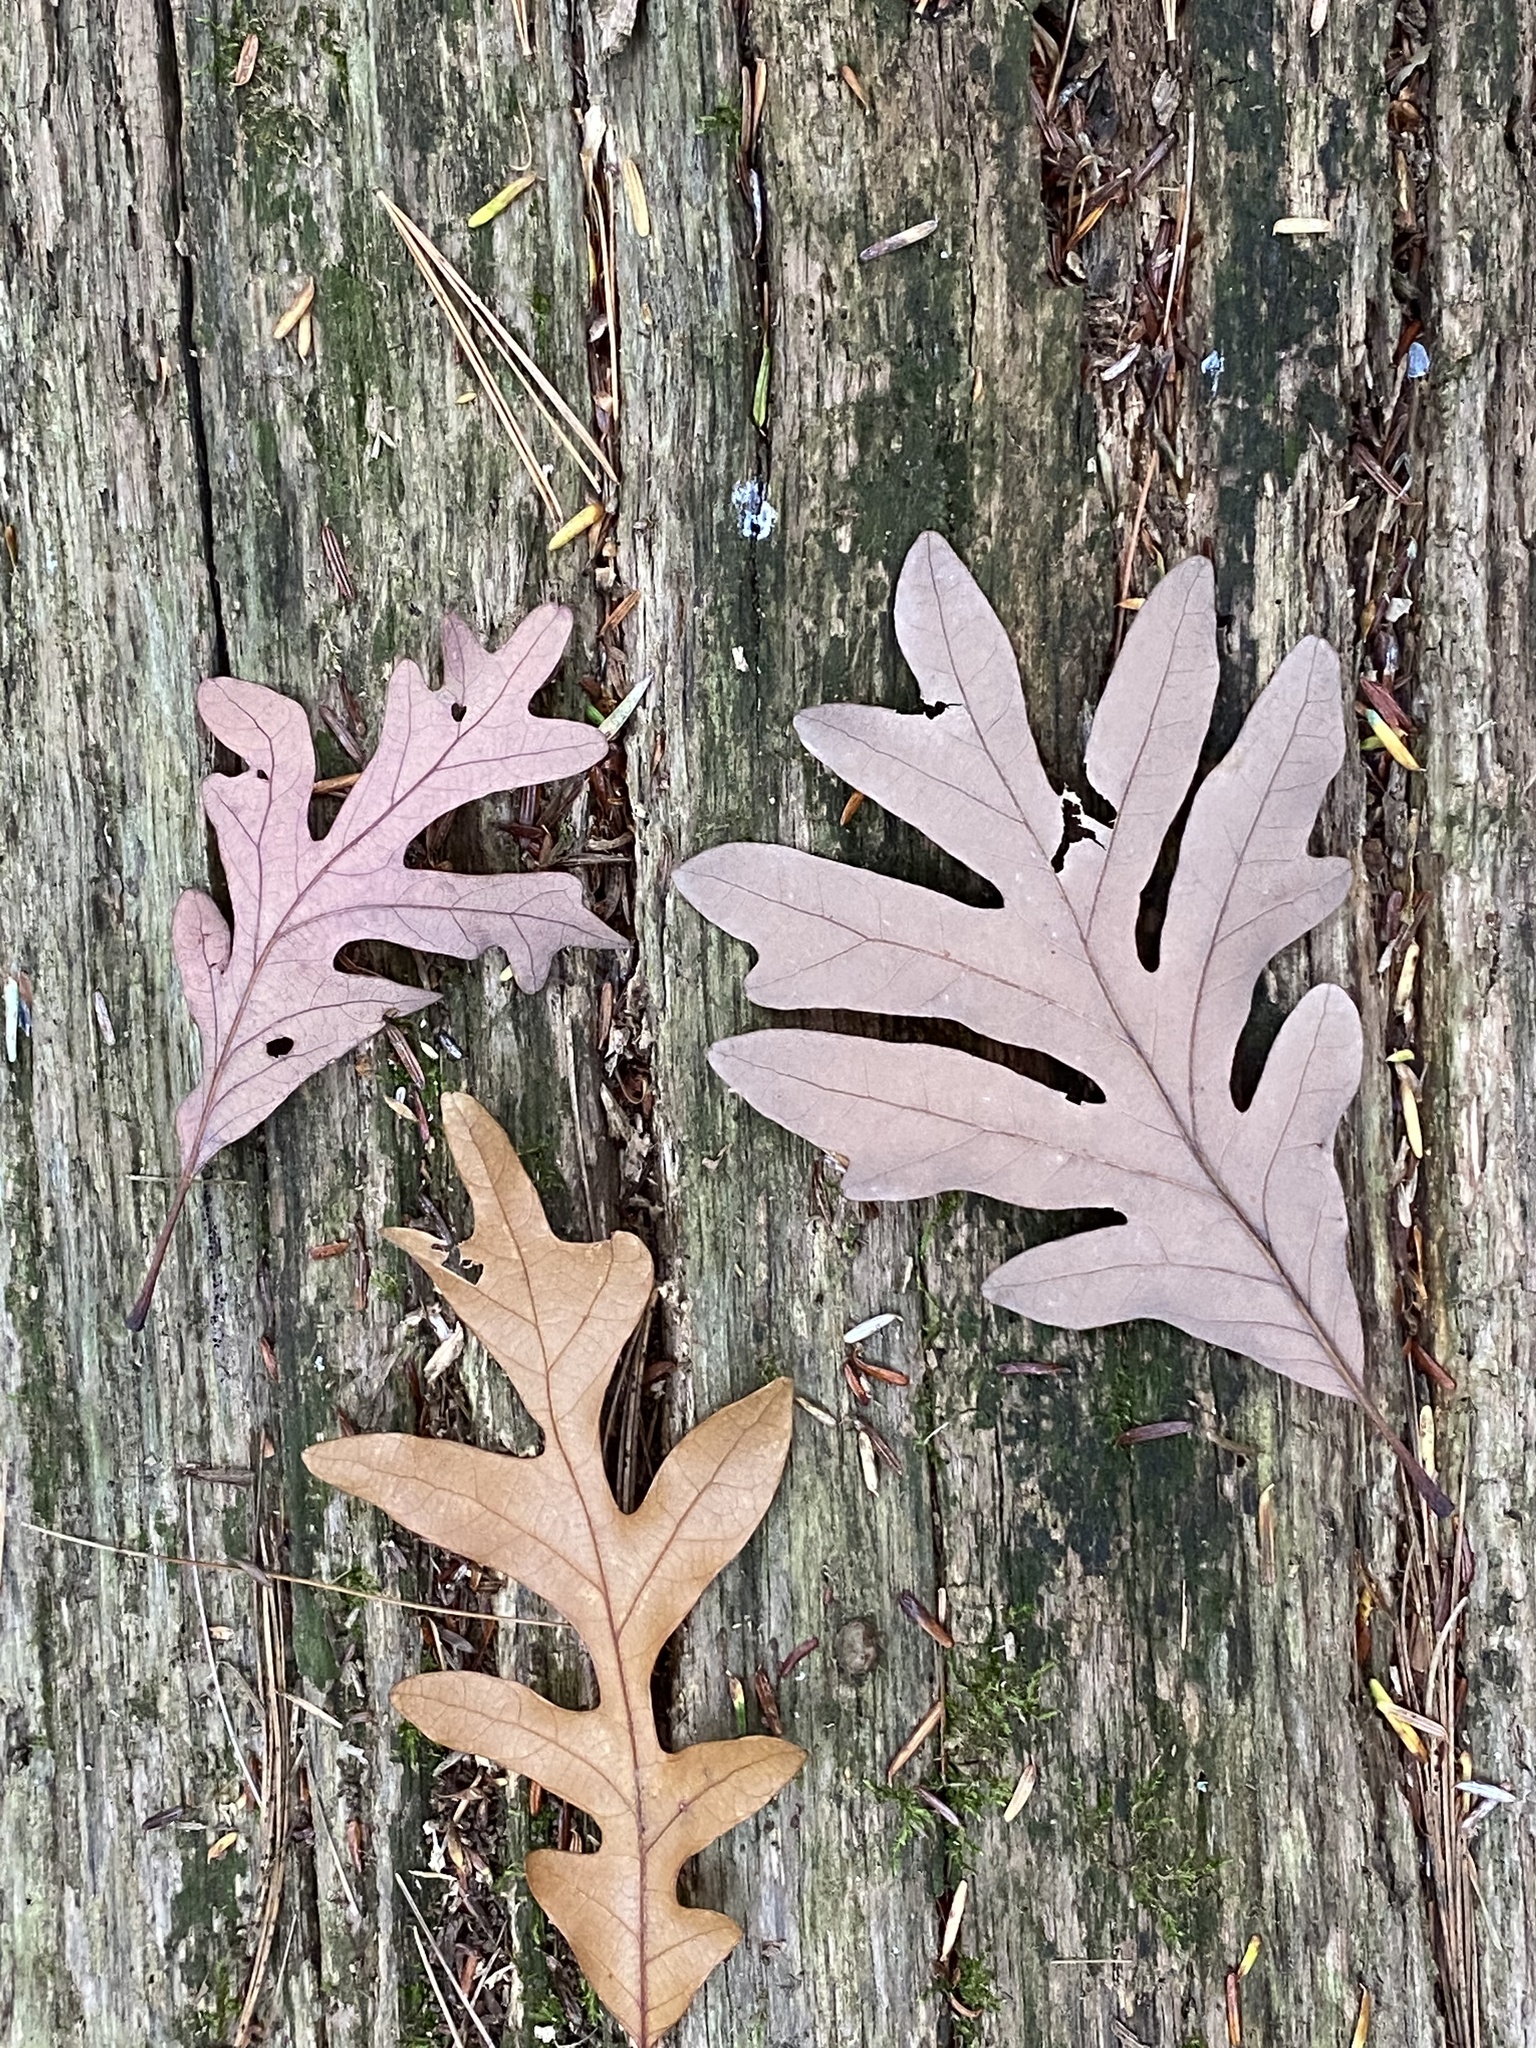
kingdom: Plantae
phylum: Tracheophyta
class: Magnoliopsida
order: Fagales
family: Fagaceae
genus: Quercus
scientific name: Quercus alba
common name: White oak
